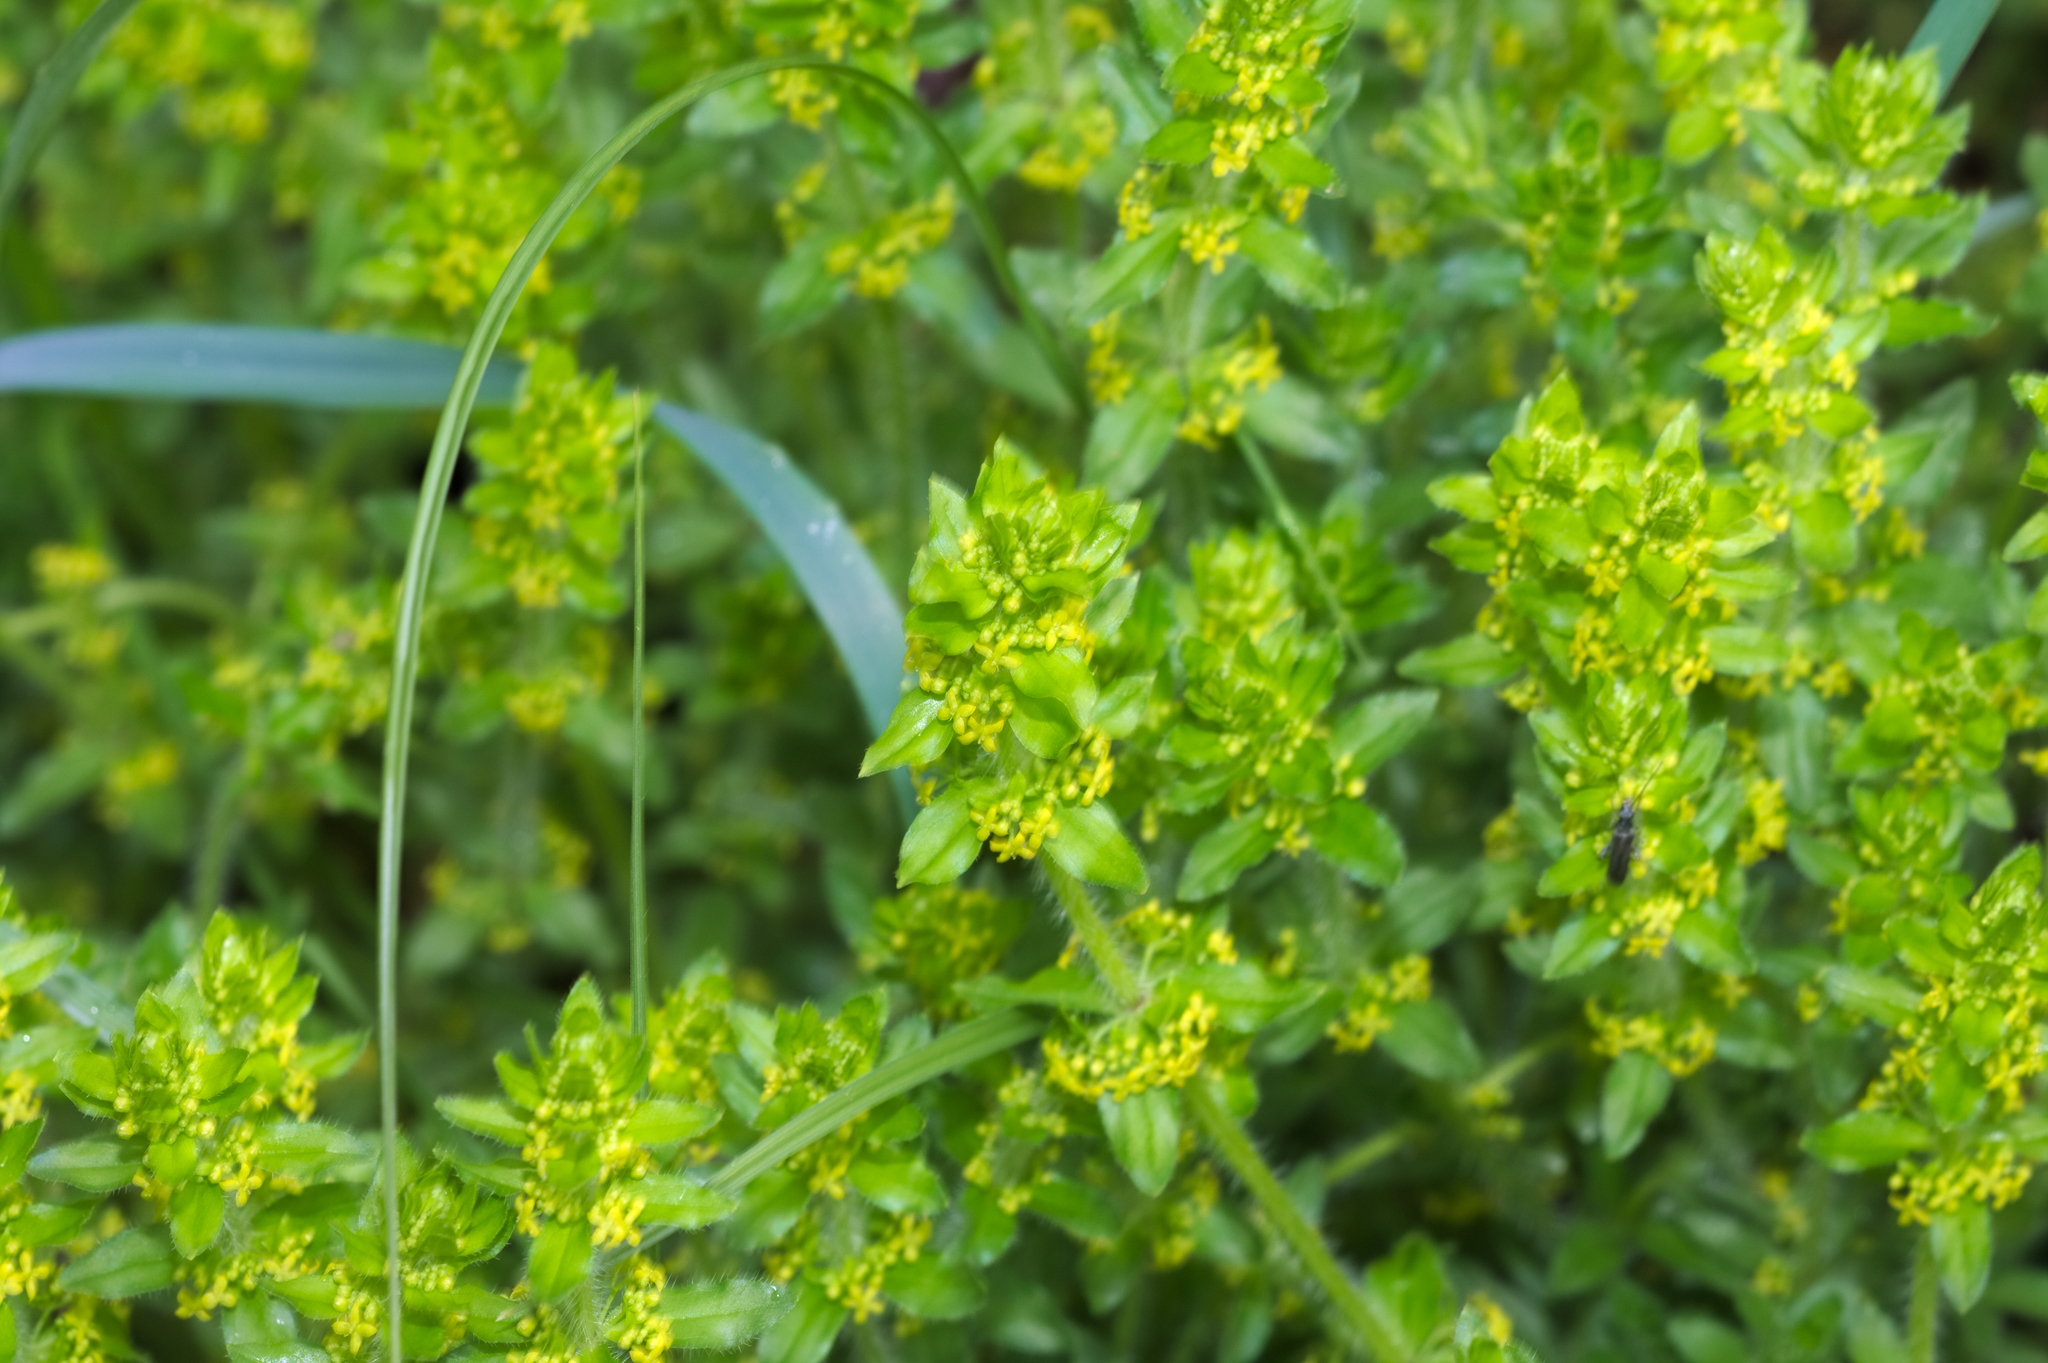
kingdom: Plantae
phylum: Tracheophyta
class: Magnoliopsida
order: Gentianales
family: Rubiaceae
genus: Cruciata
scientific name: Cruciata laevipes
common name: Crosswort
